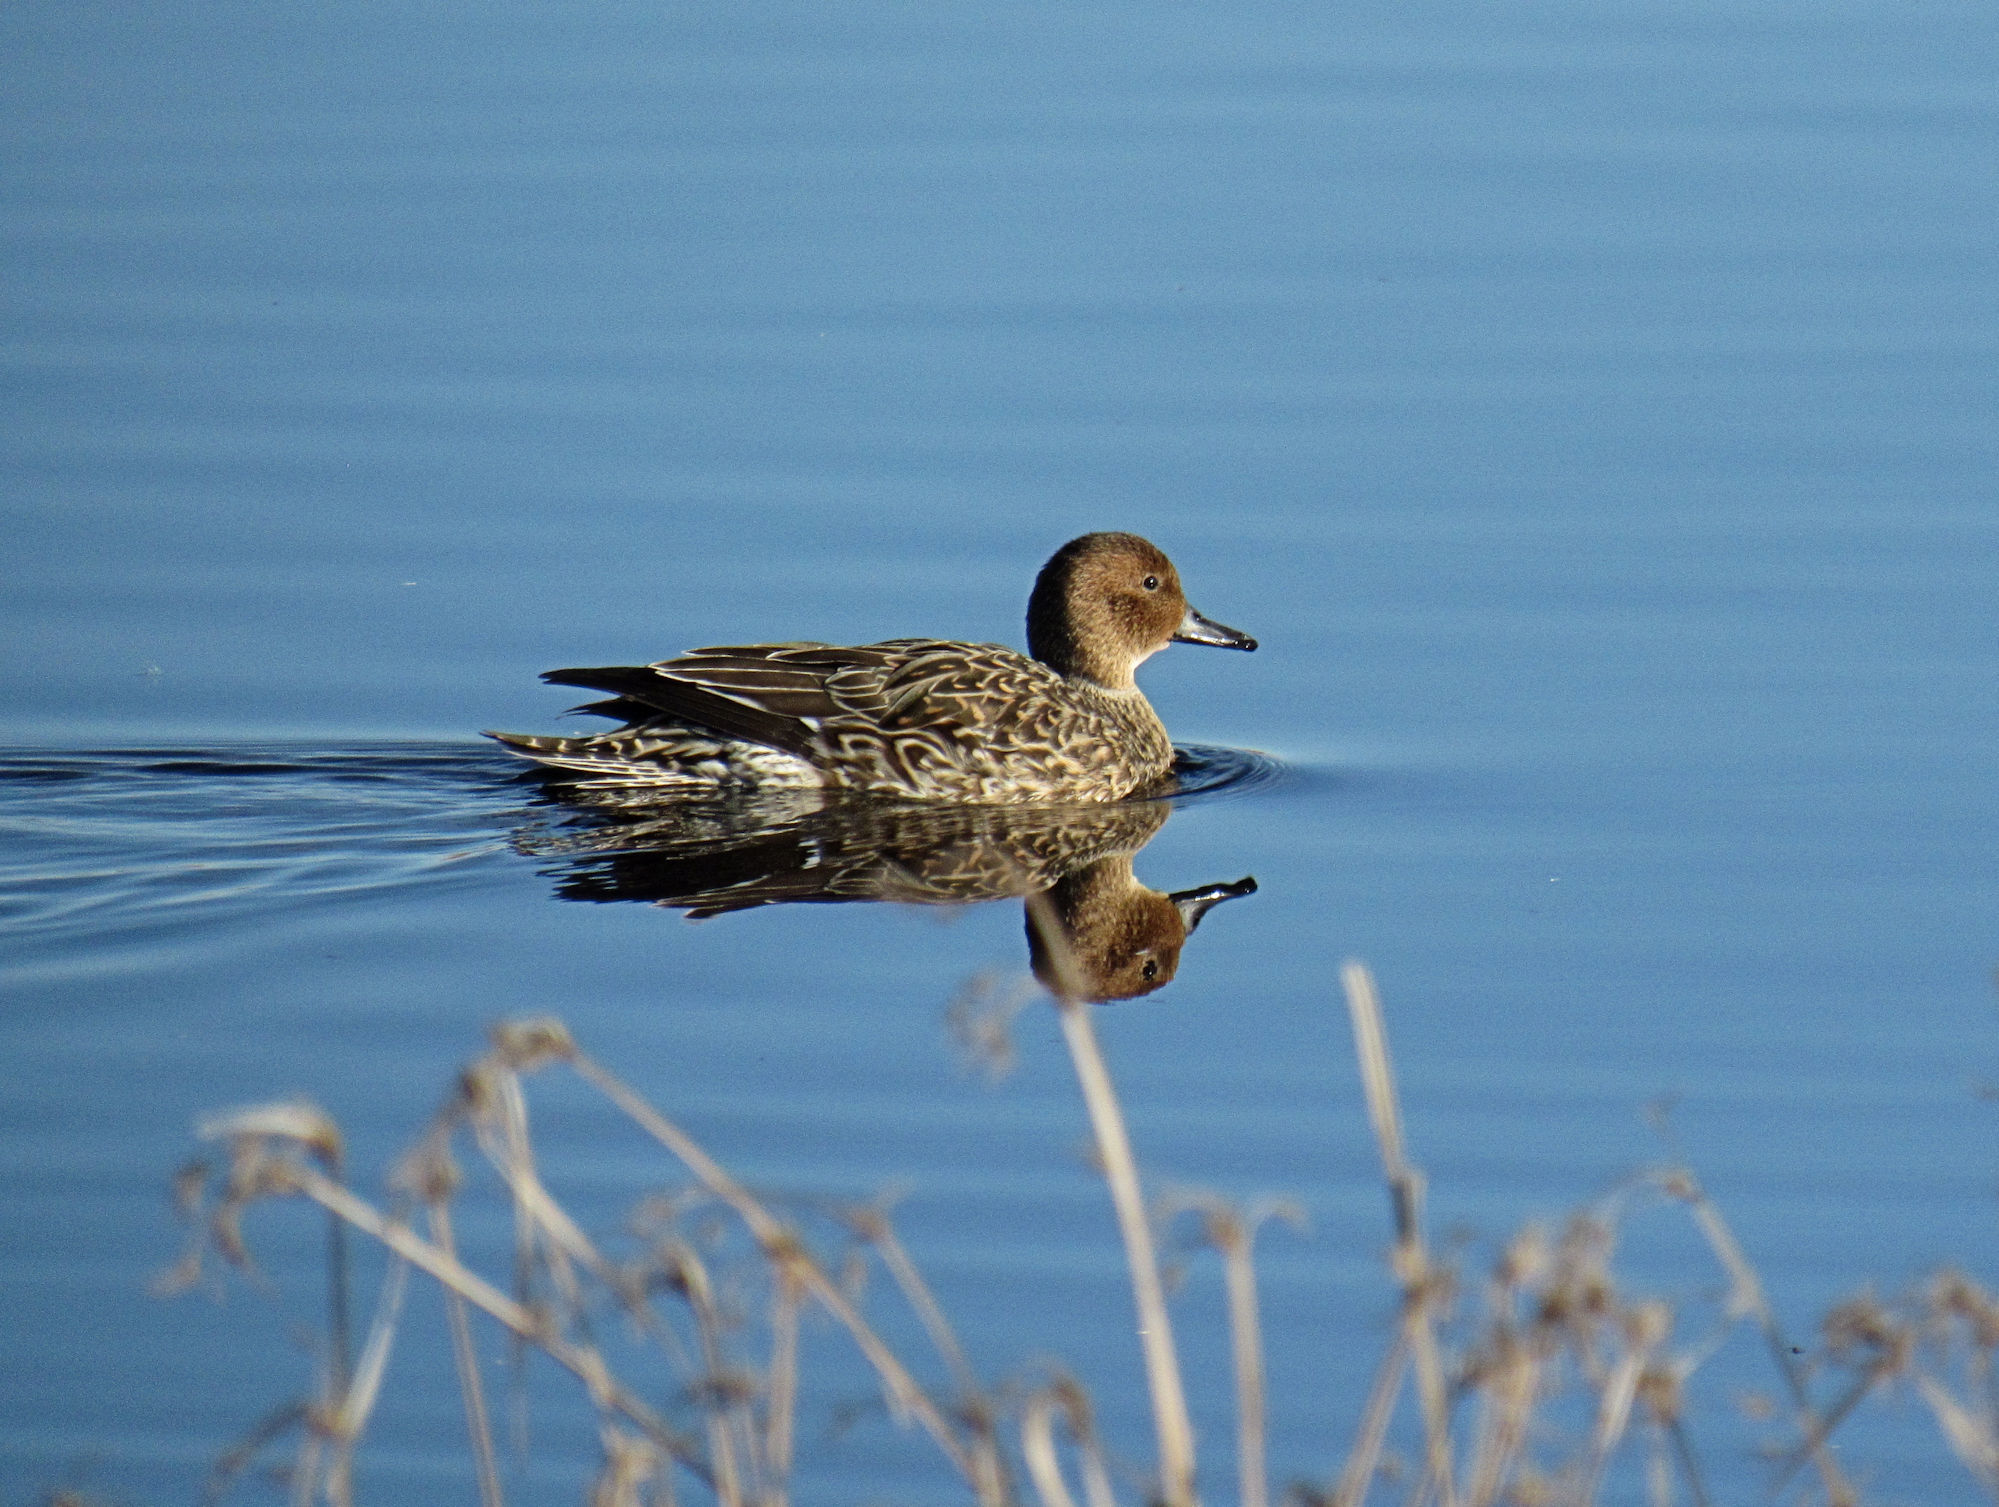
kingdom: Animalia
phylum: Chordata
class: Aves
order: Anseriformes
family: Anatidae
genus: Anas
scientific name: Anas acuta
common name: Northern pintail
